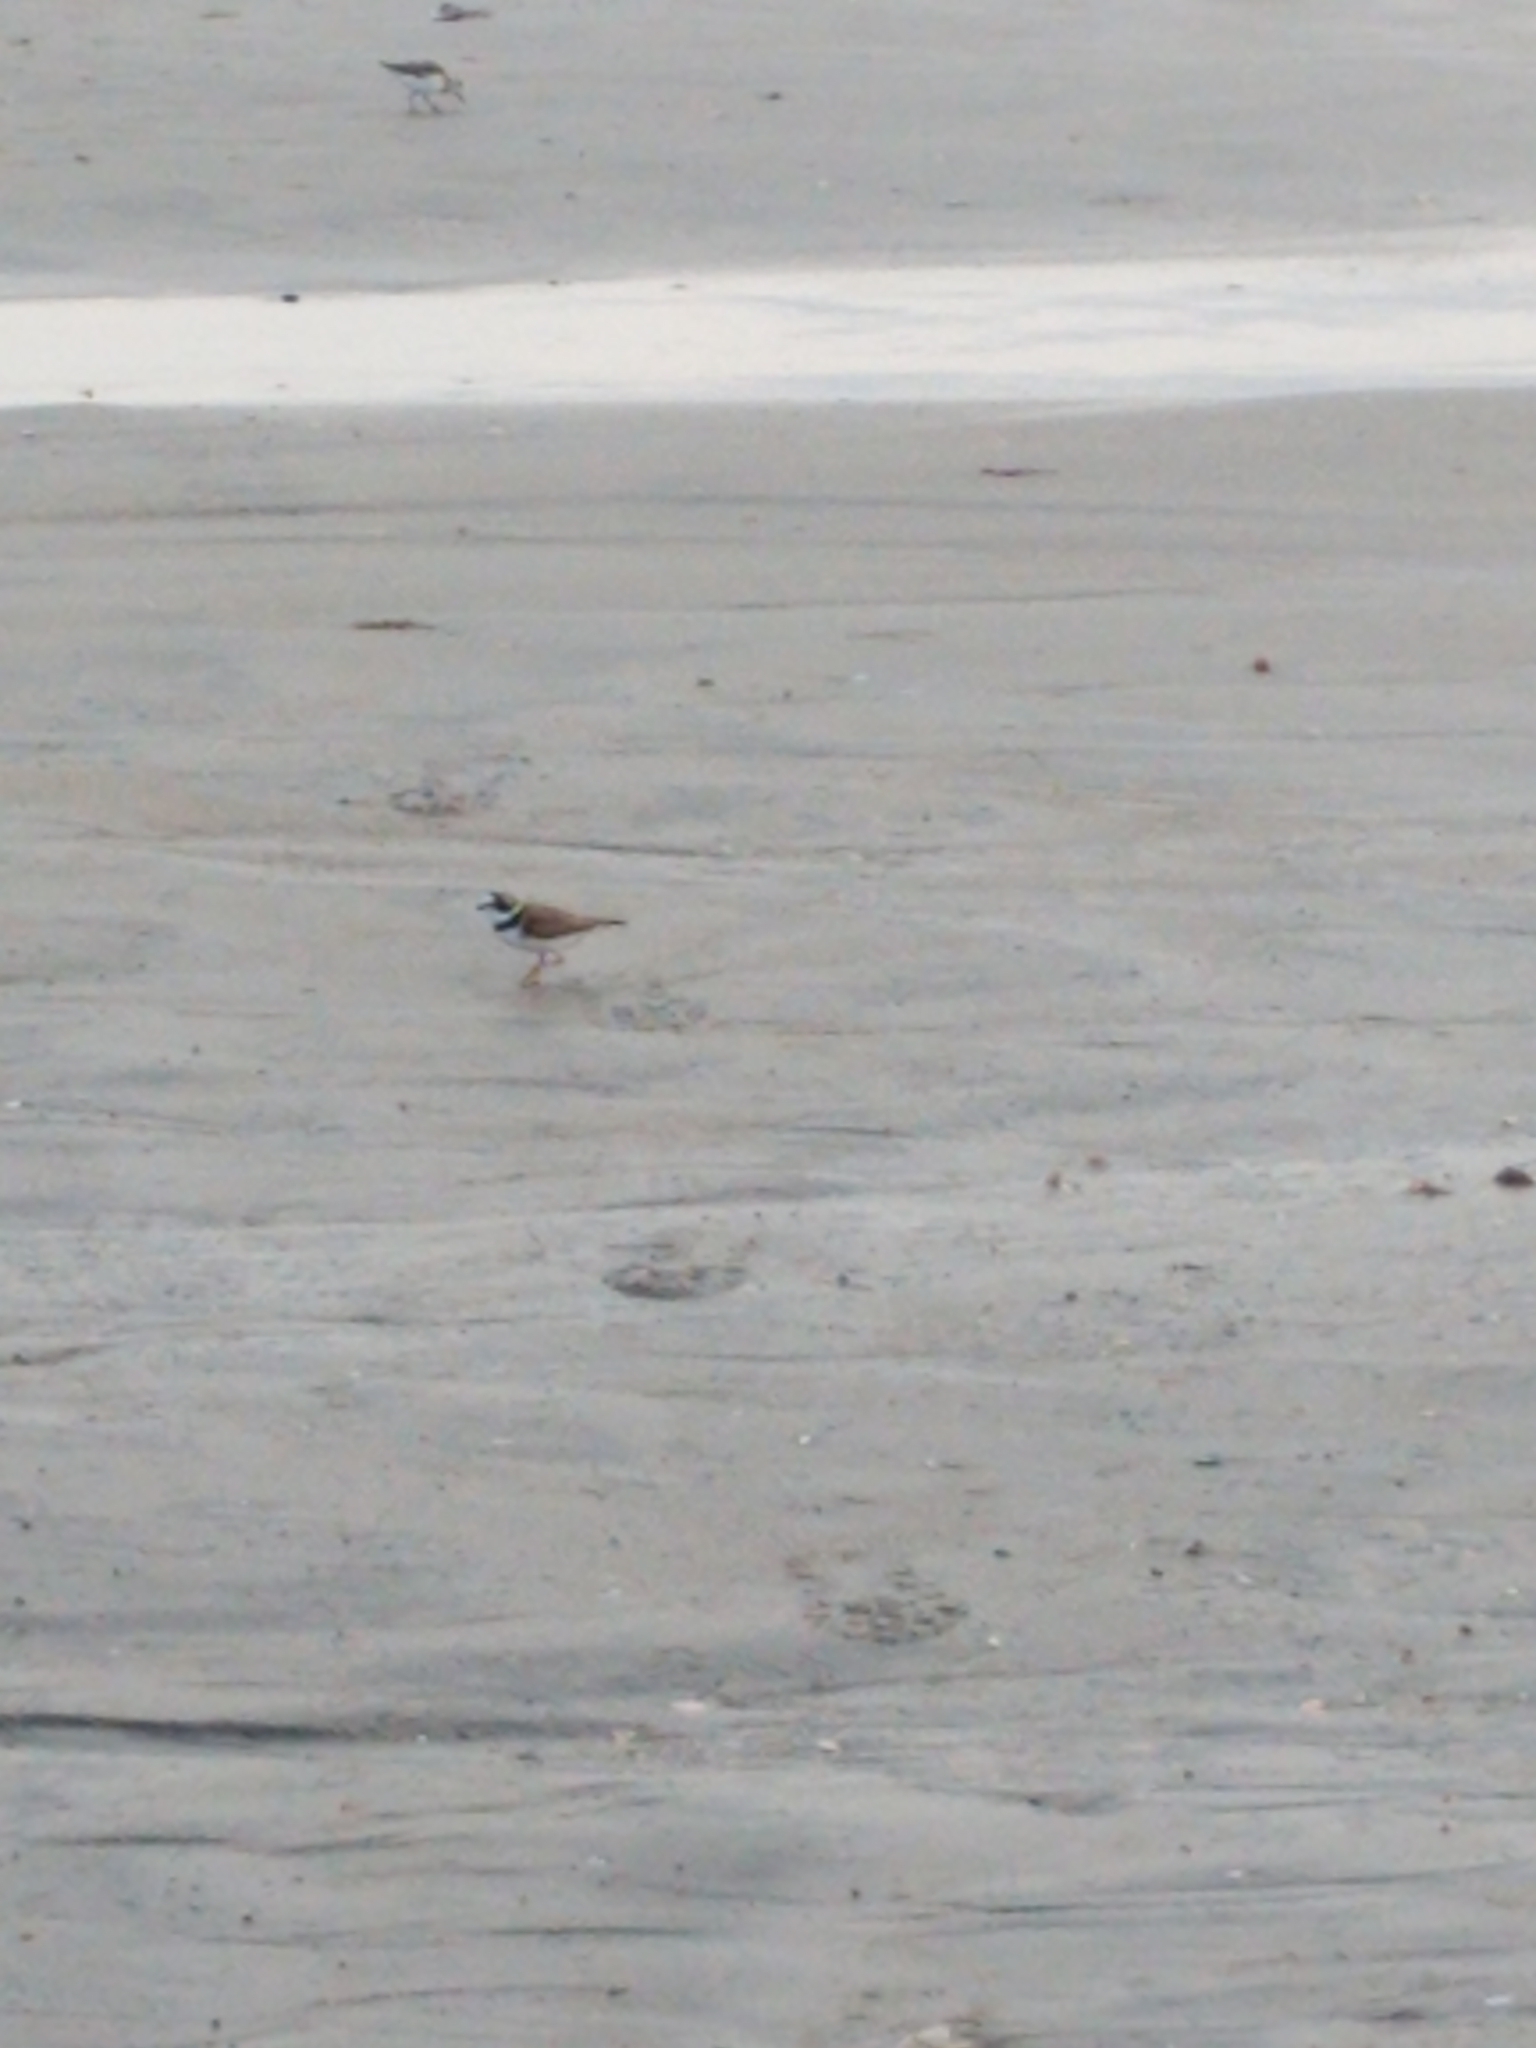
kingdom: Animalia
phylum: Chordata
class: Aves
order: Charadriiformes
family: Charadriidae
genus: Charadrius
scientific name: Charadrius semipalmatus
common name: Semipalmated plover
